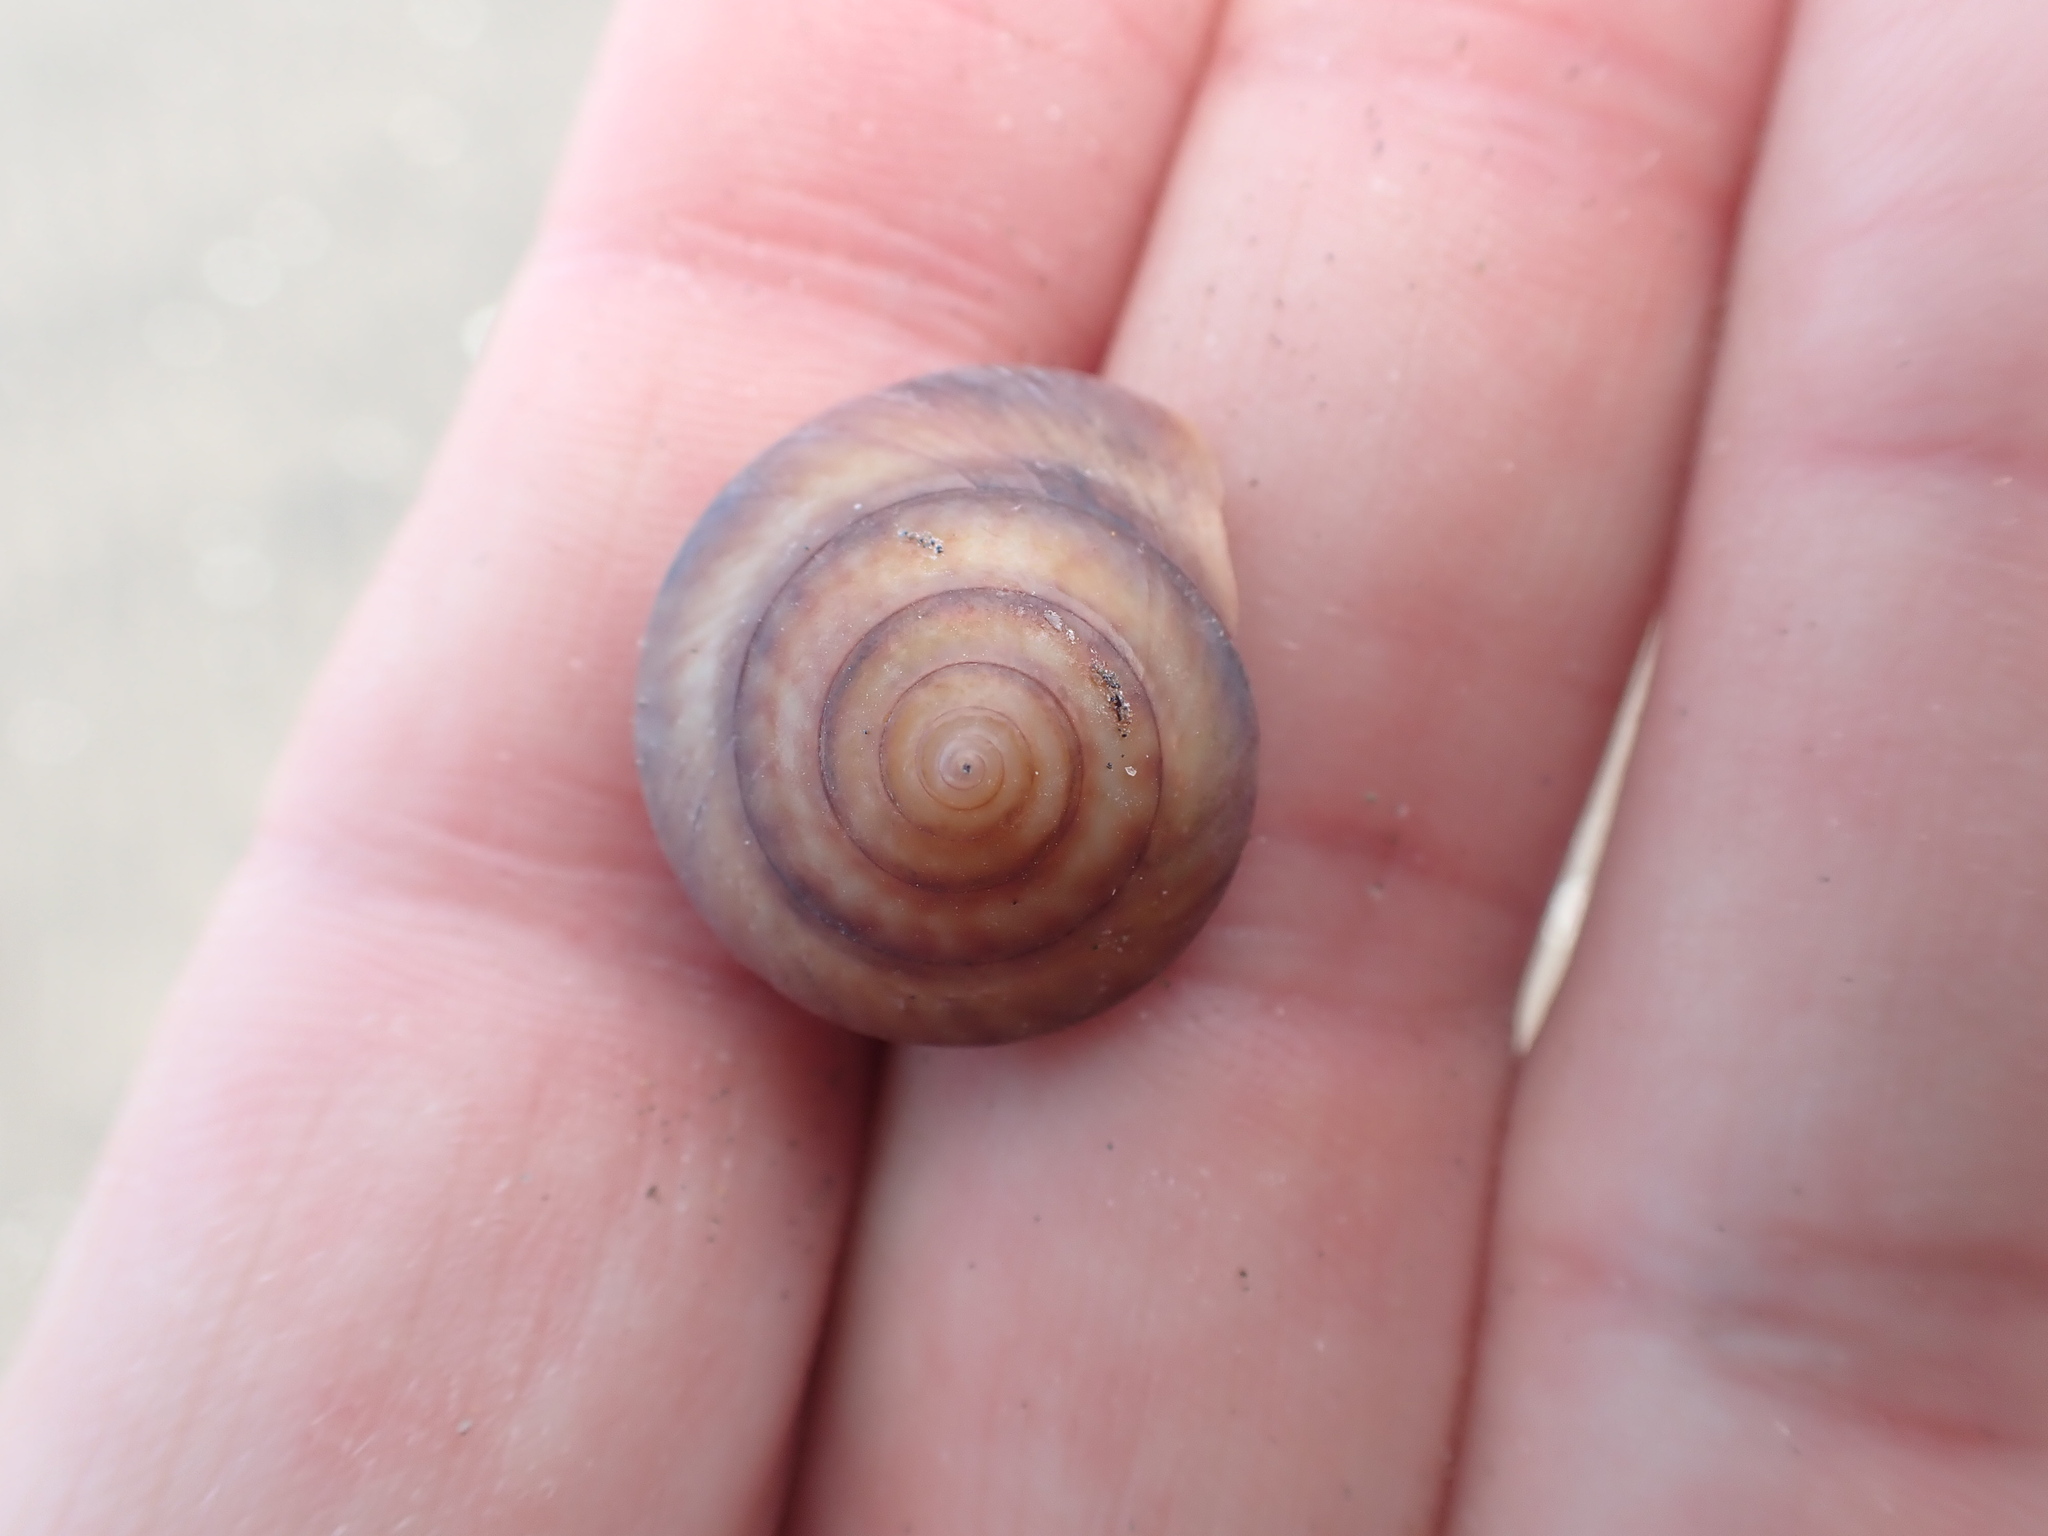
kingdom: Animalia
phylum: Mollusca
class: Gastropoda
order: Trochida
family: Trochidae
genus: Zethalia
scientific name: Zethalia zelandica
